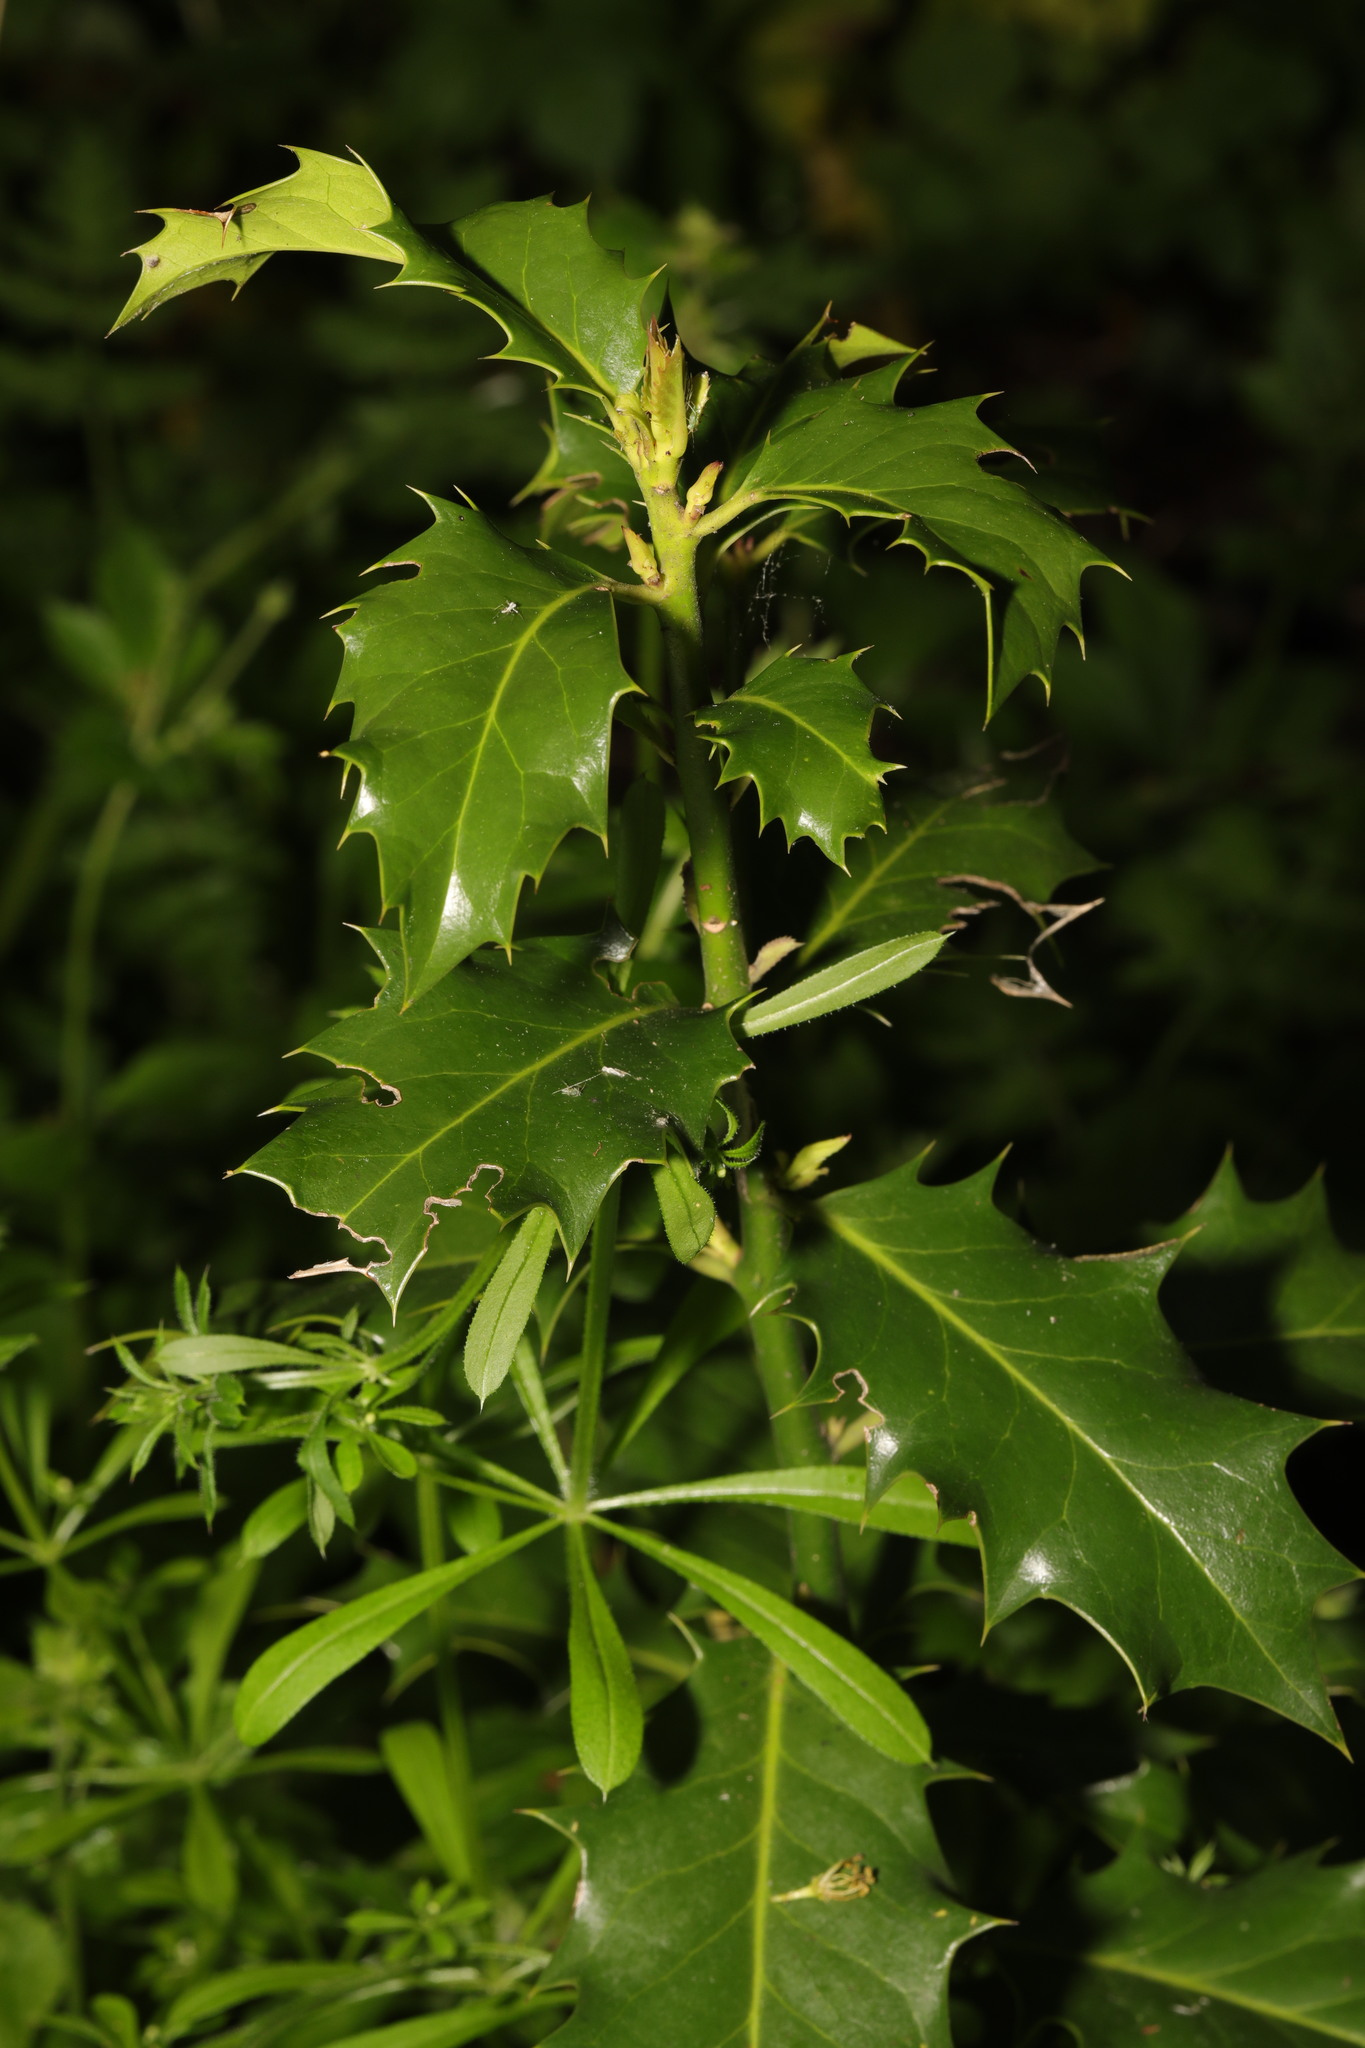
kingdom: Plantae
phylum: Tracheophyta
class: Magnoliopsida
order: Aquifoliales
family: Aquifoliaceae
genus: Ilex
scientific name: Ilex aquifolium
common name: English holly
